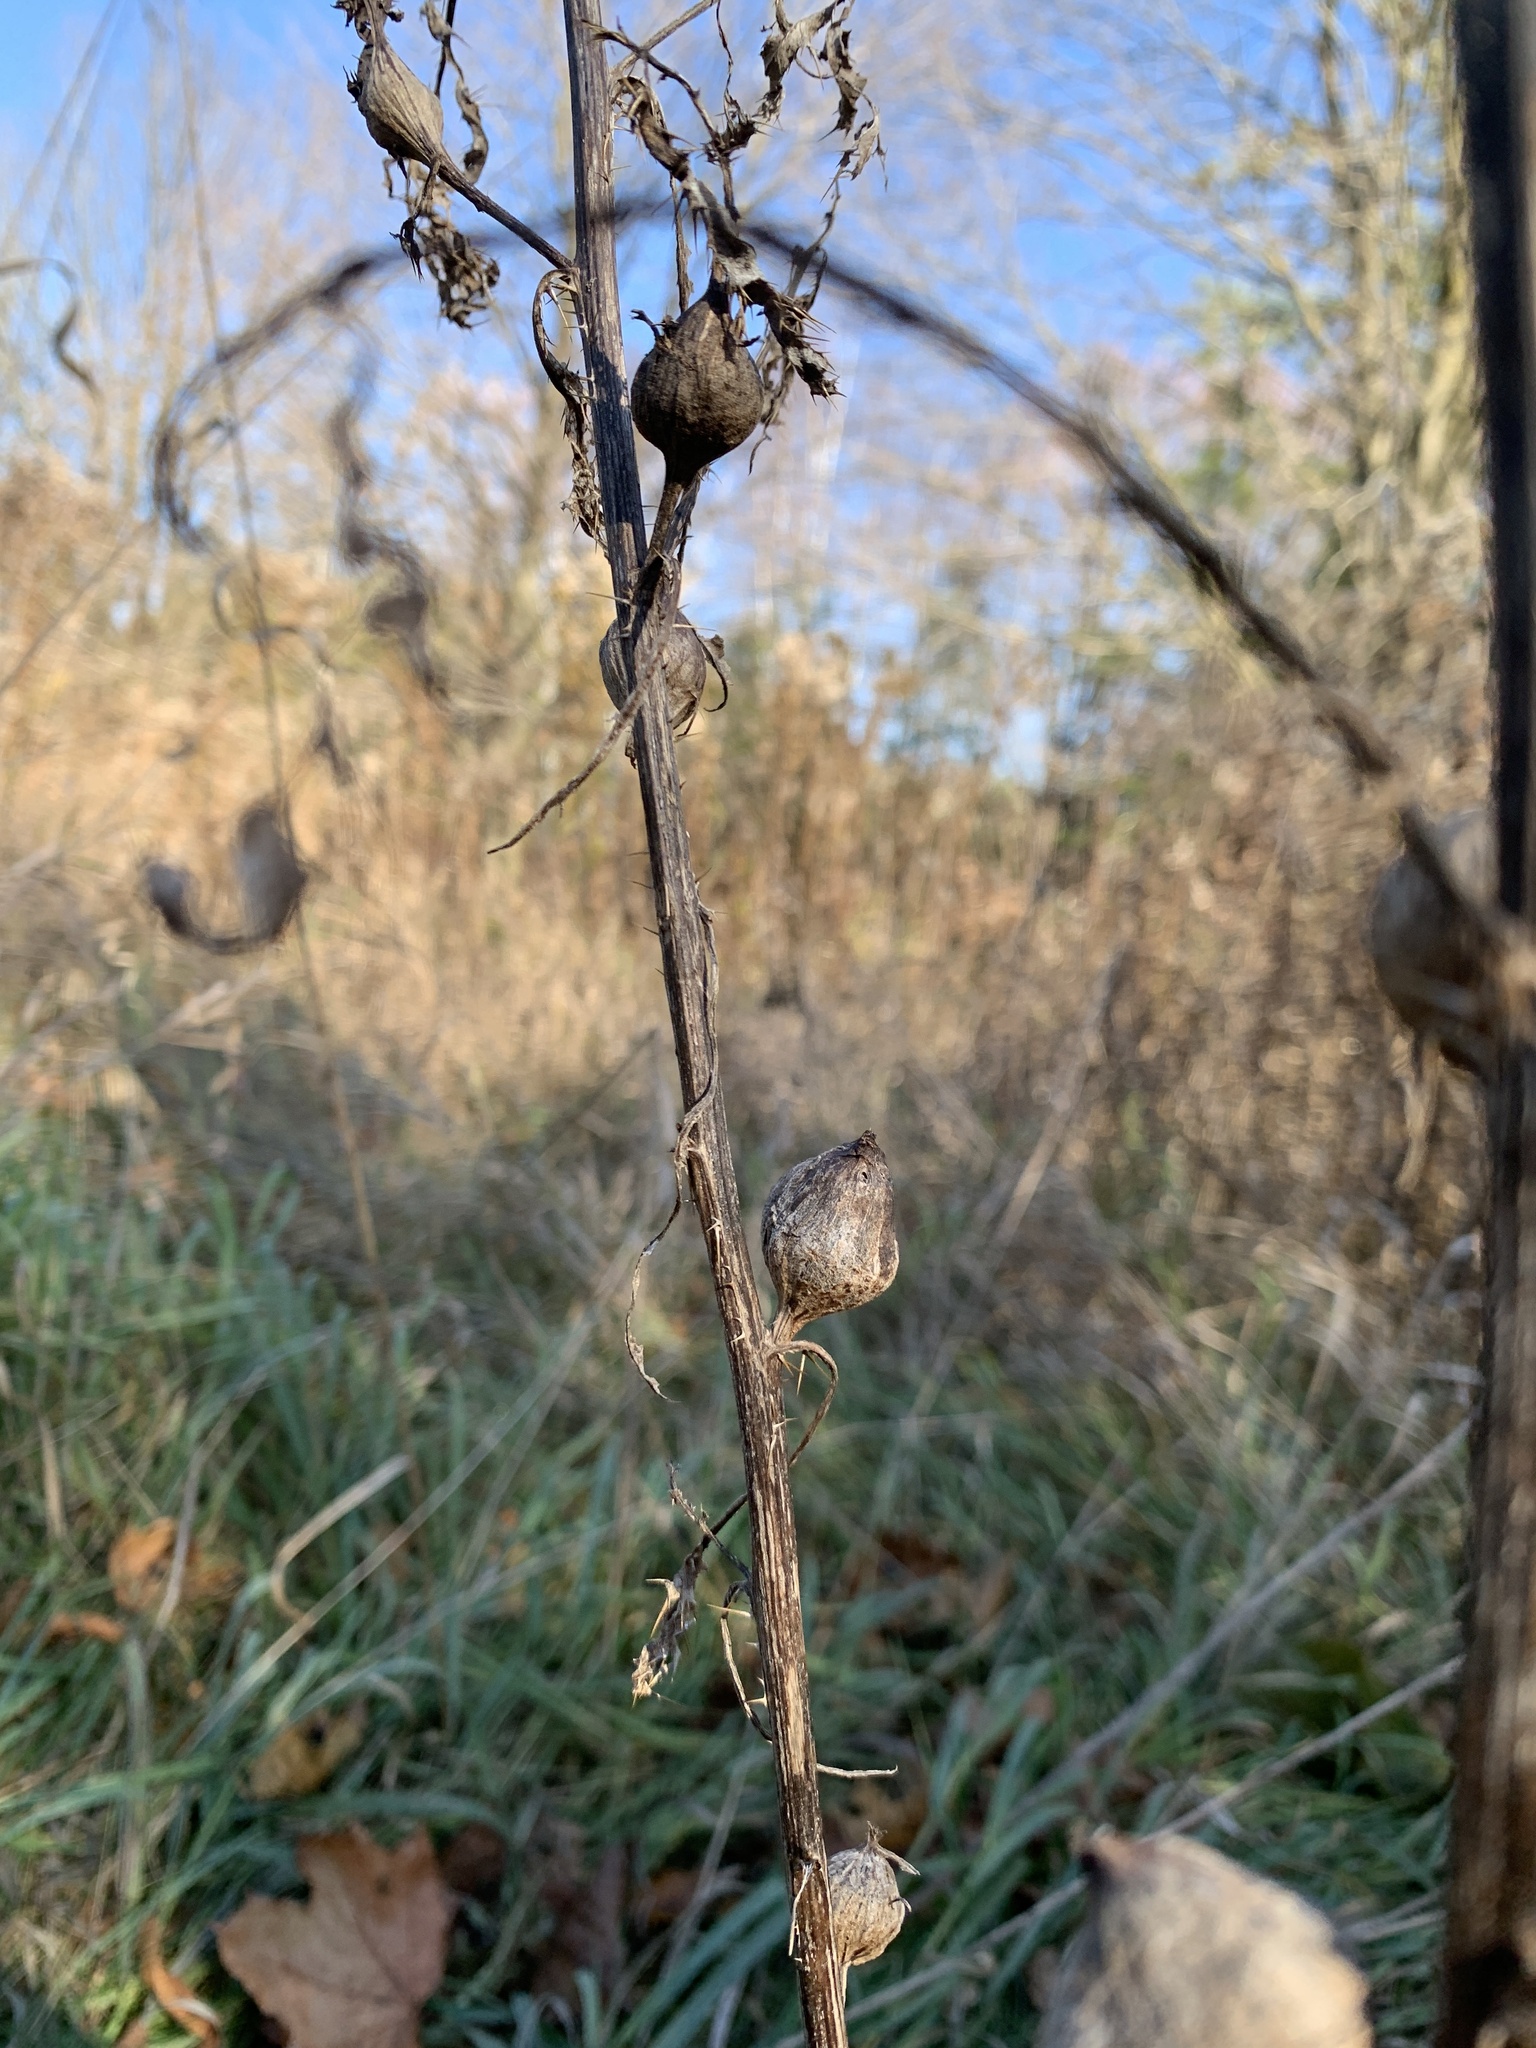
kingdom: Animalia
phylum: Arthropoda
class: Insecta
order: Diptera
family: Tephritidae
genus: Urophora
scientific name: Urophora cardui
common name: Fruit fly
